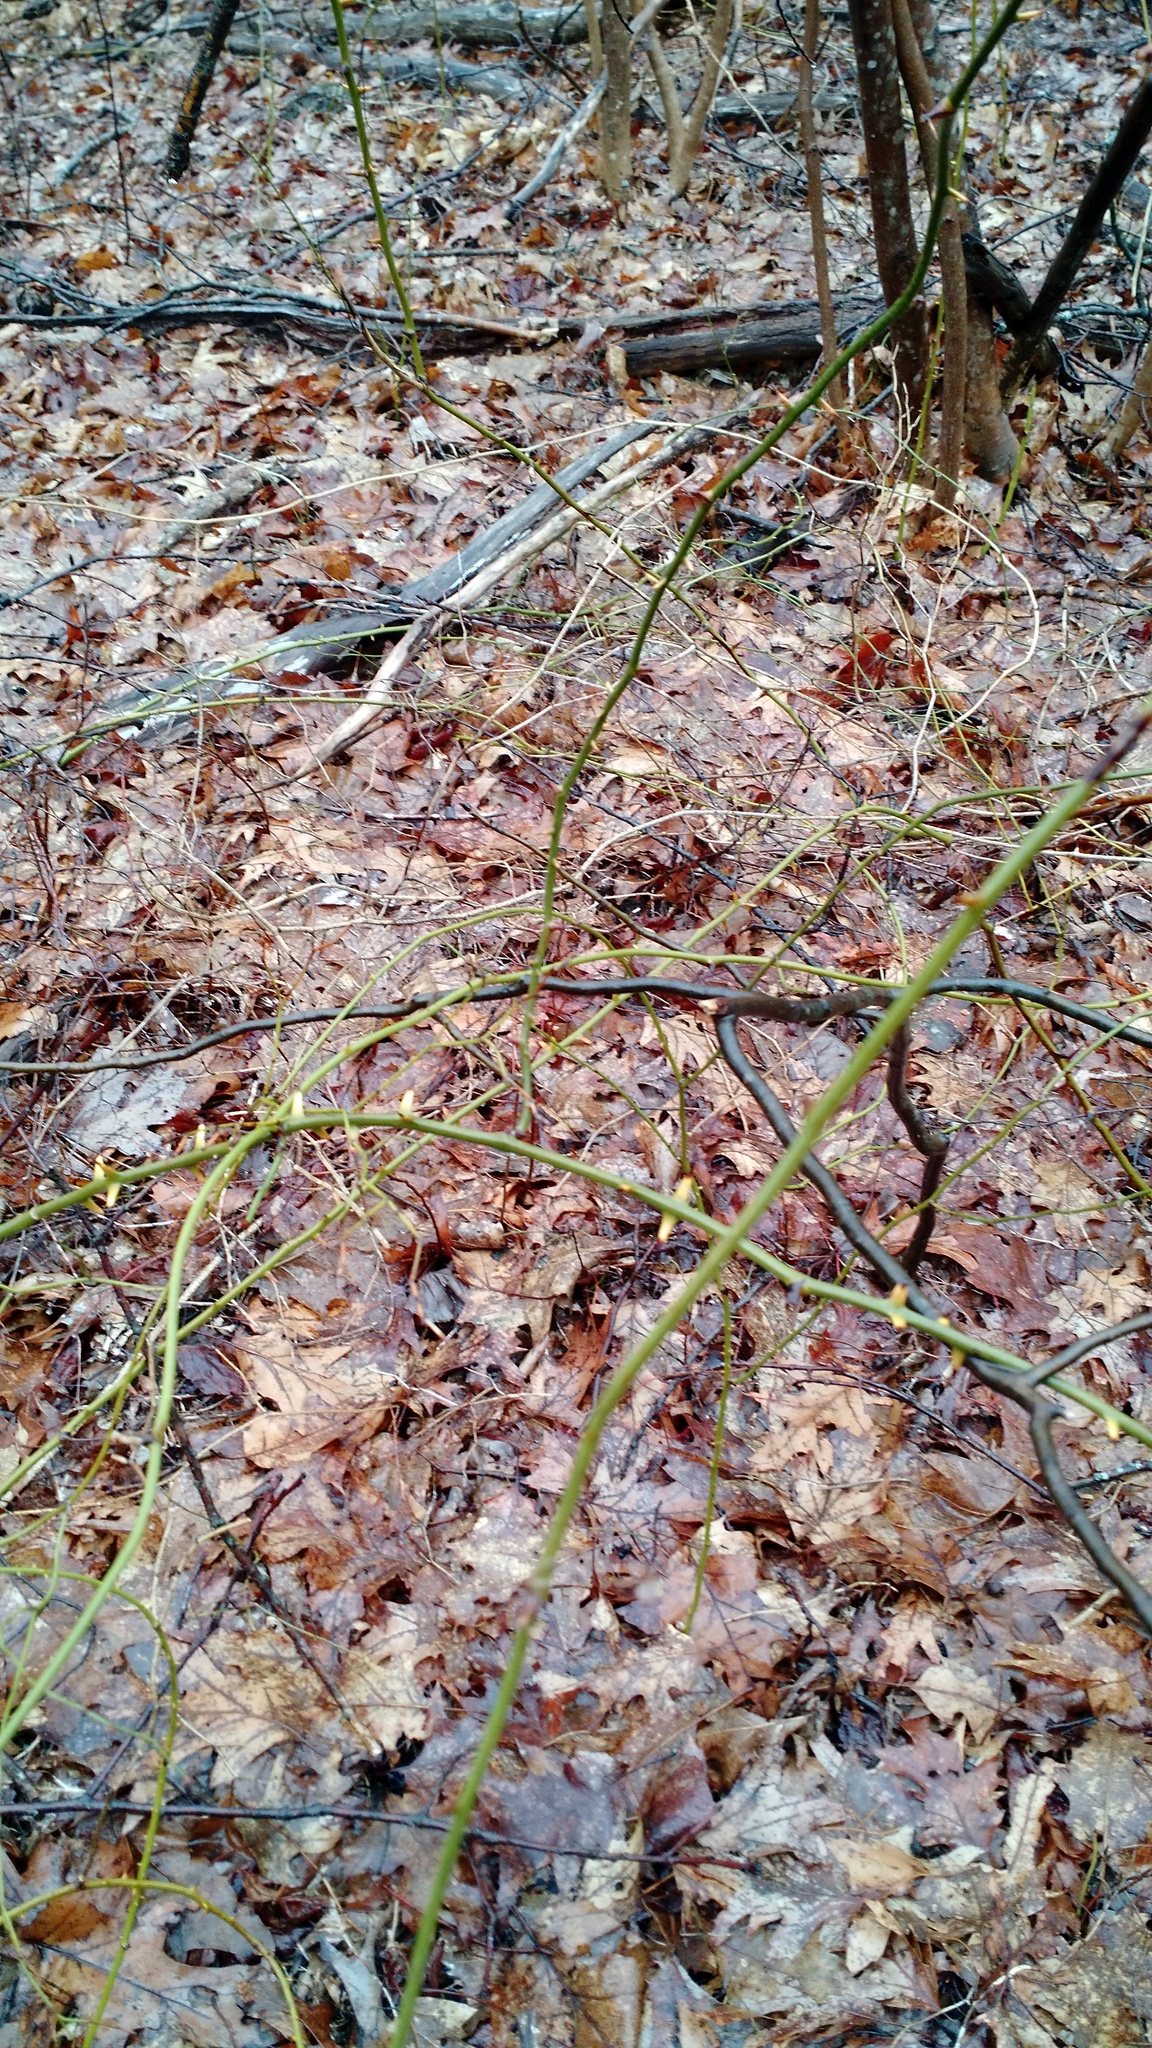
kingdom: Plantae
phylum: Tracheophyta
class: Liliopsida
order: Liliales
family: Smilacaceae
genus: Smilax
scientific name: Smilax rotundifolia
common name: Bullbriar
